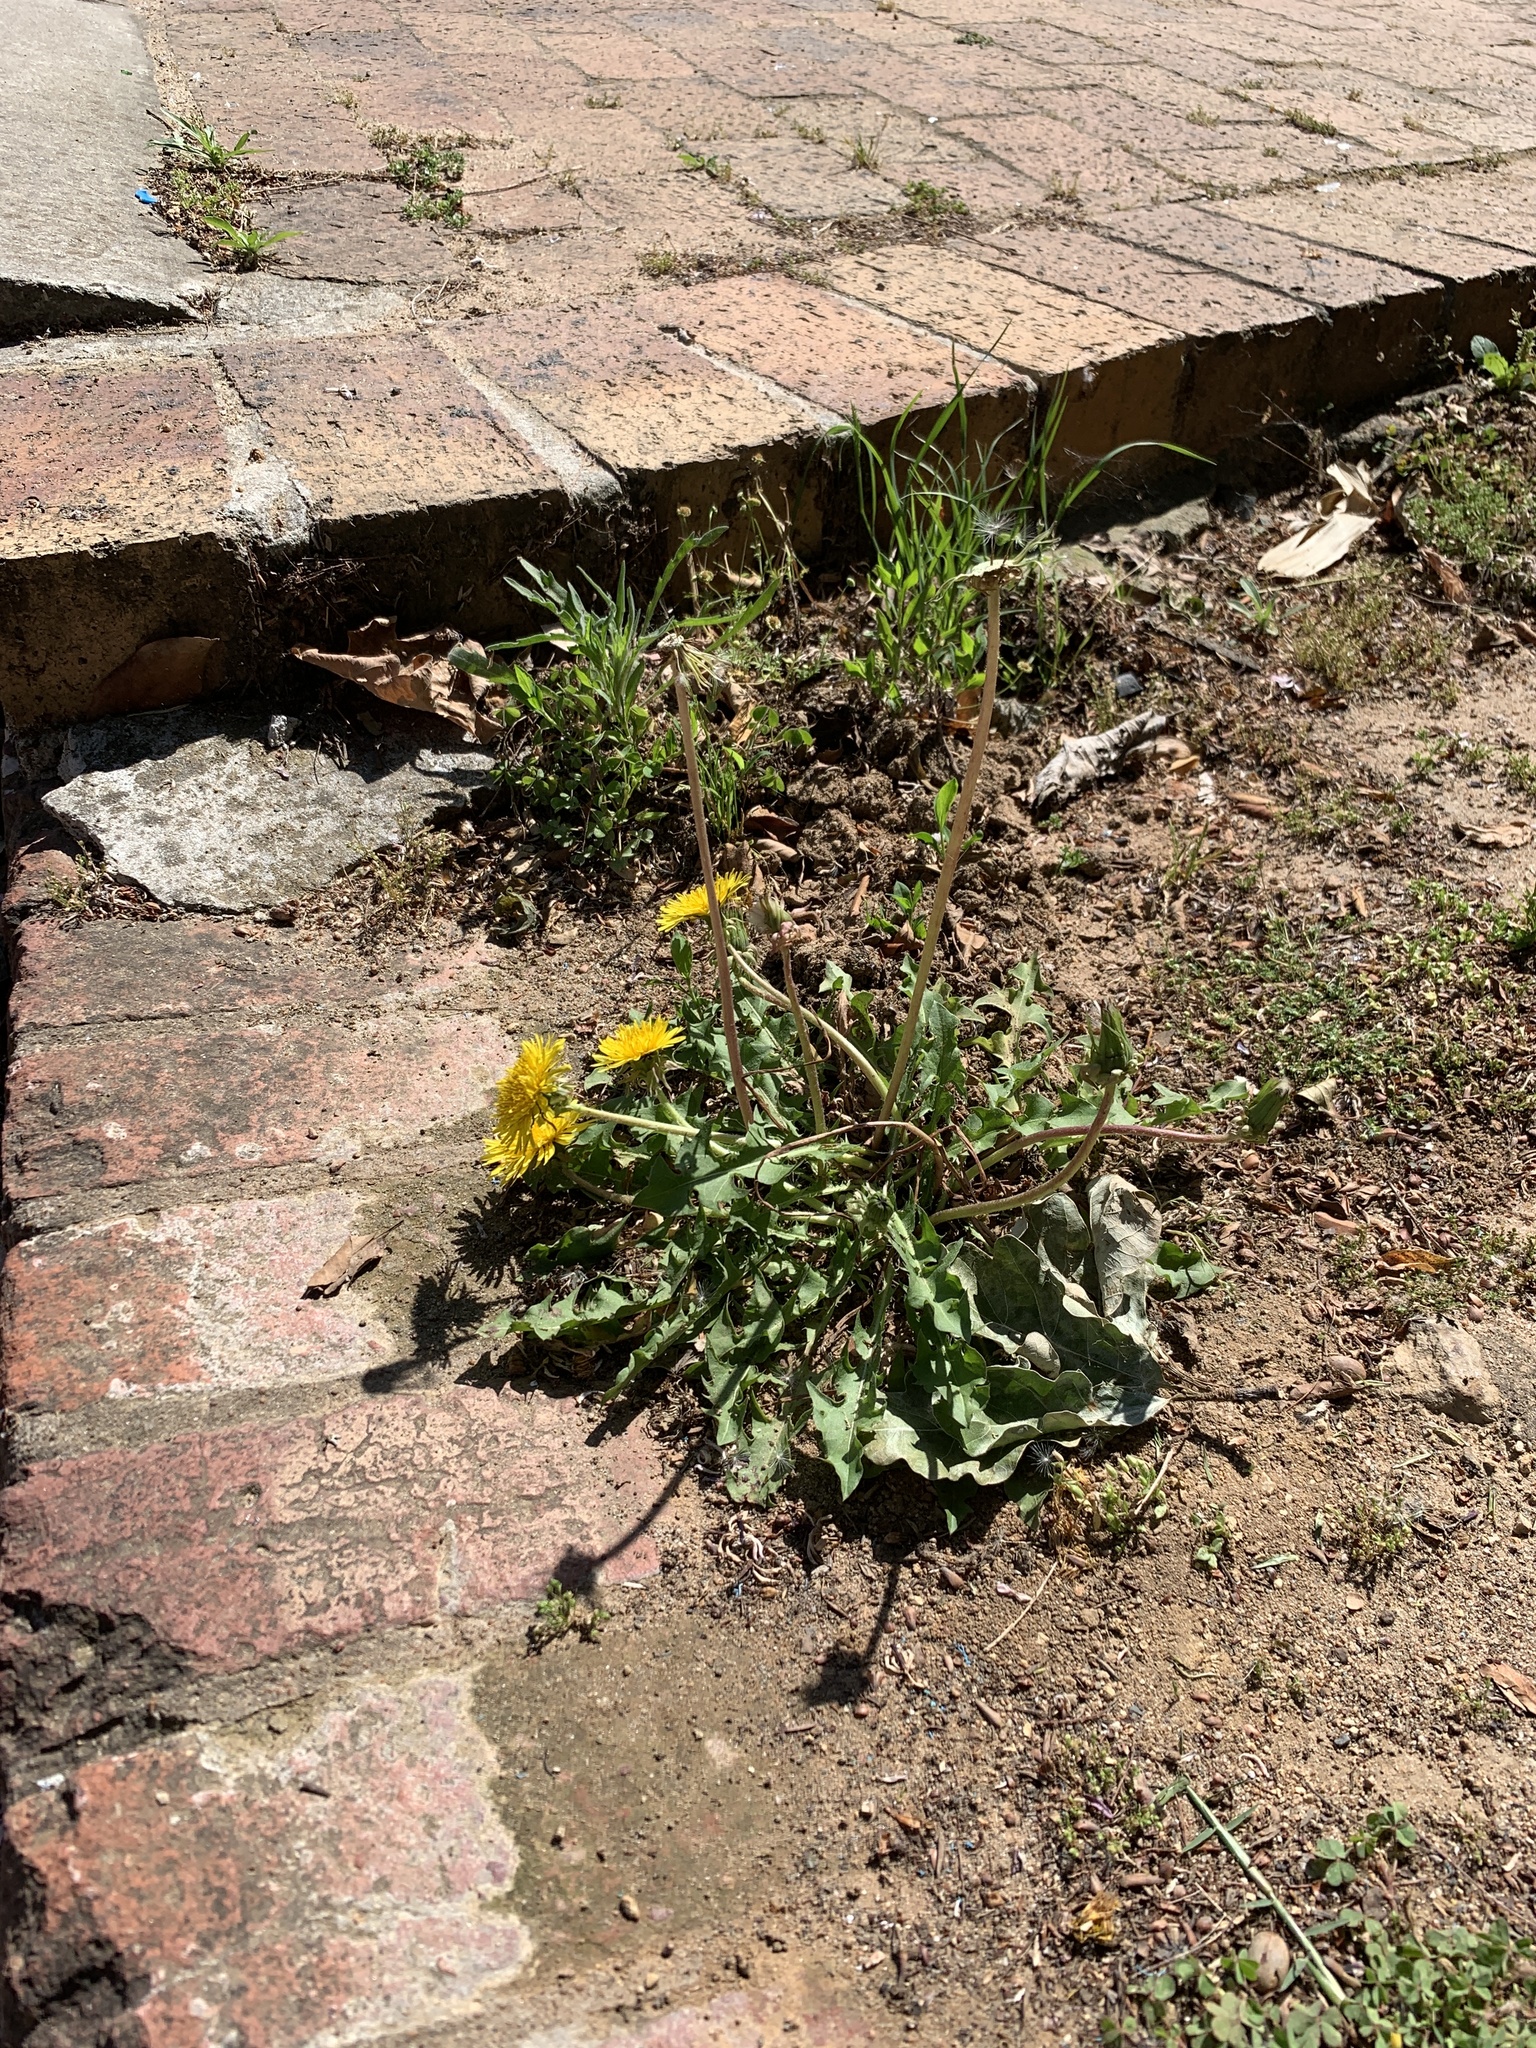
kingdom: Plantae
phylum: Tracheophyta
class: Magnoliopsida
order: Asterales
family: Asteraceae
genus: Taraxacum
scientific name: Taraxacum officinale
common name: Common dandelion
